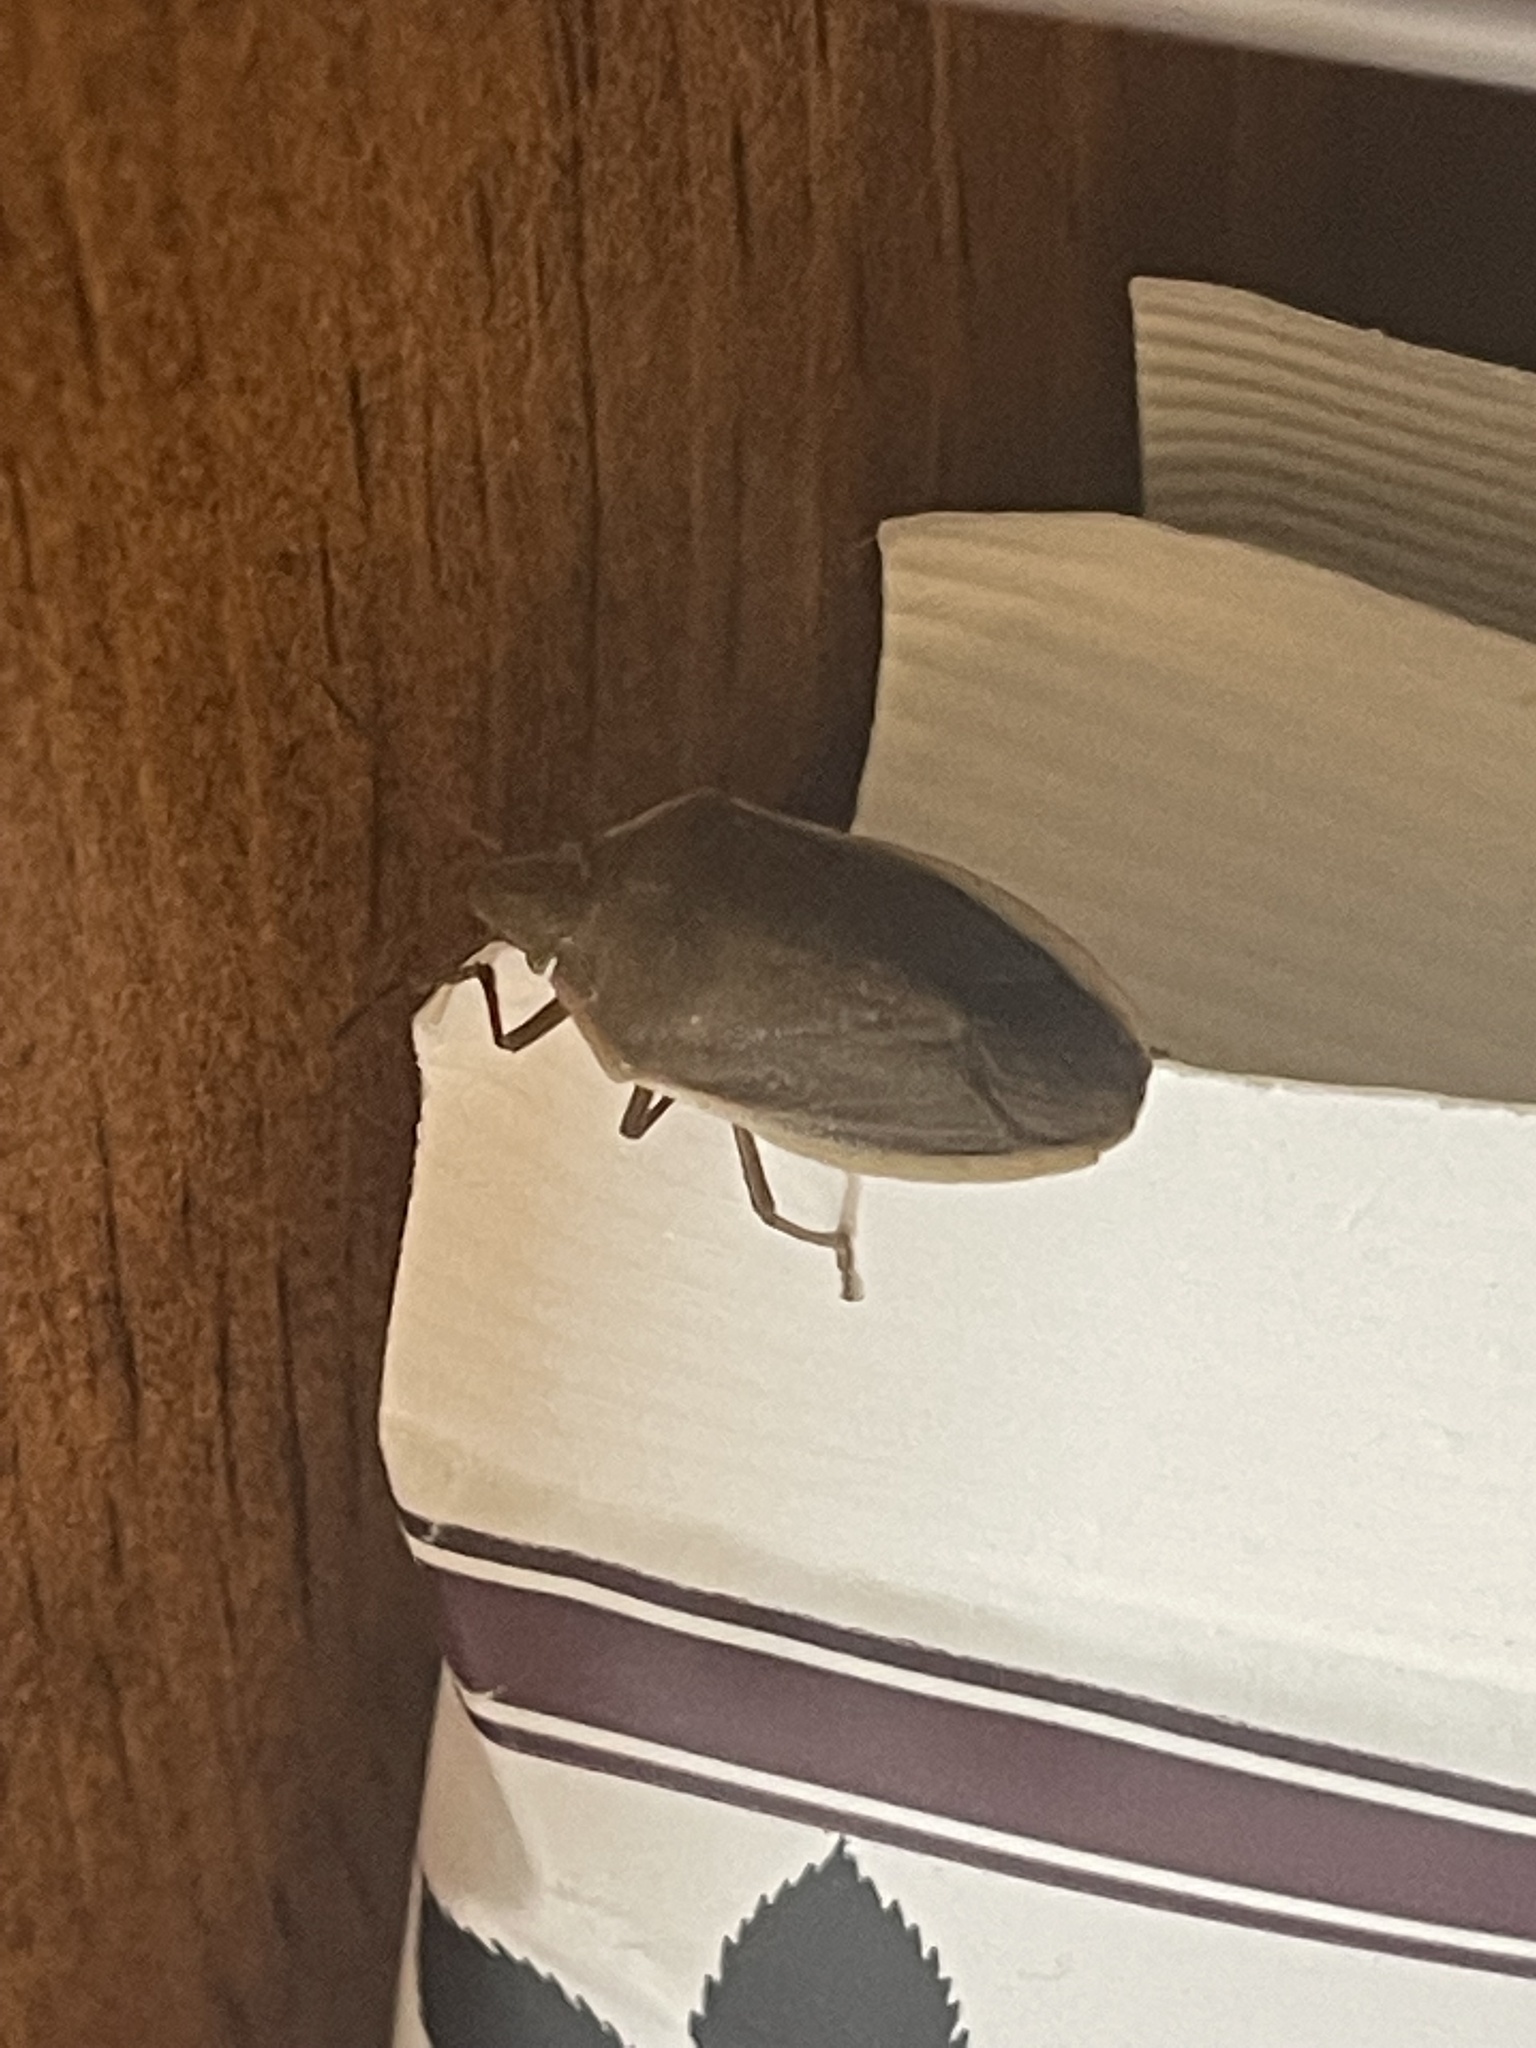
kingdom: Animalia
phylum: Arthropoda
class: Insecta
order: Hemiptera
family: Pentatomidae
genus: Chlorochroa
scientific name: Chlorochroa senilis
